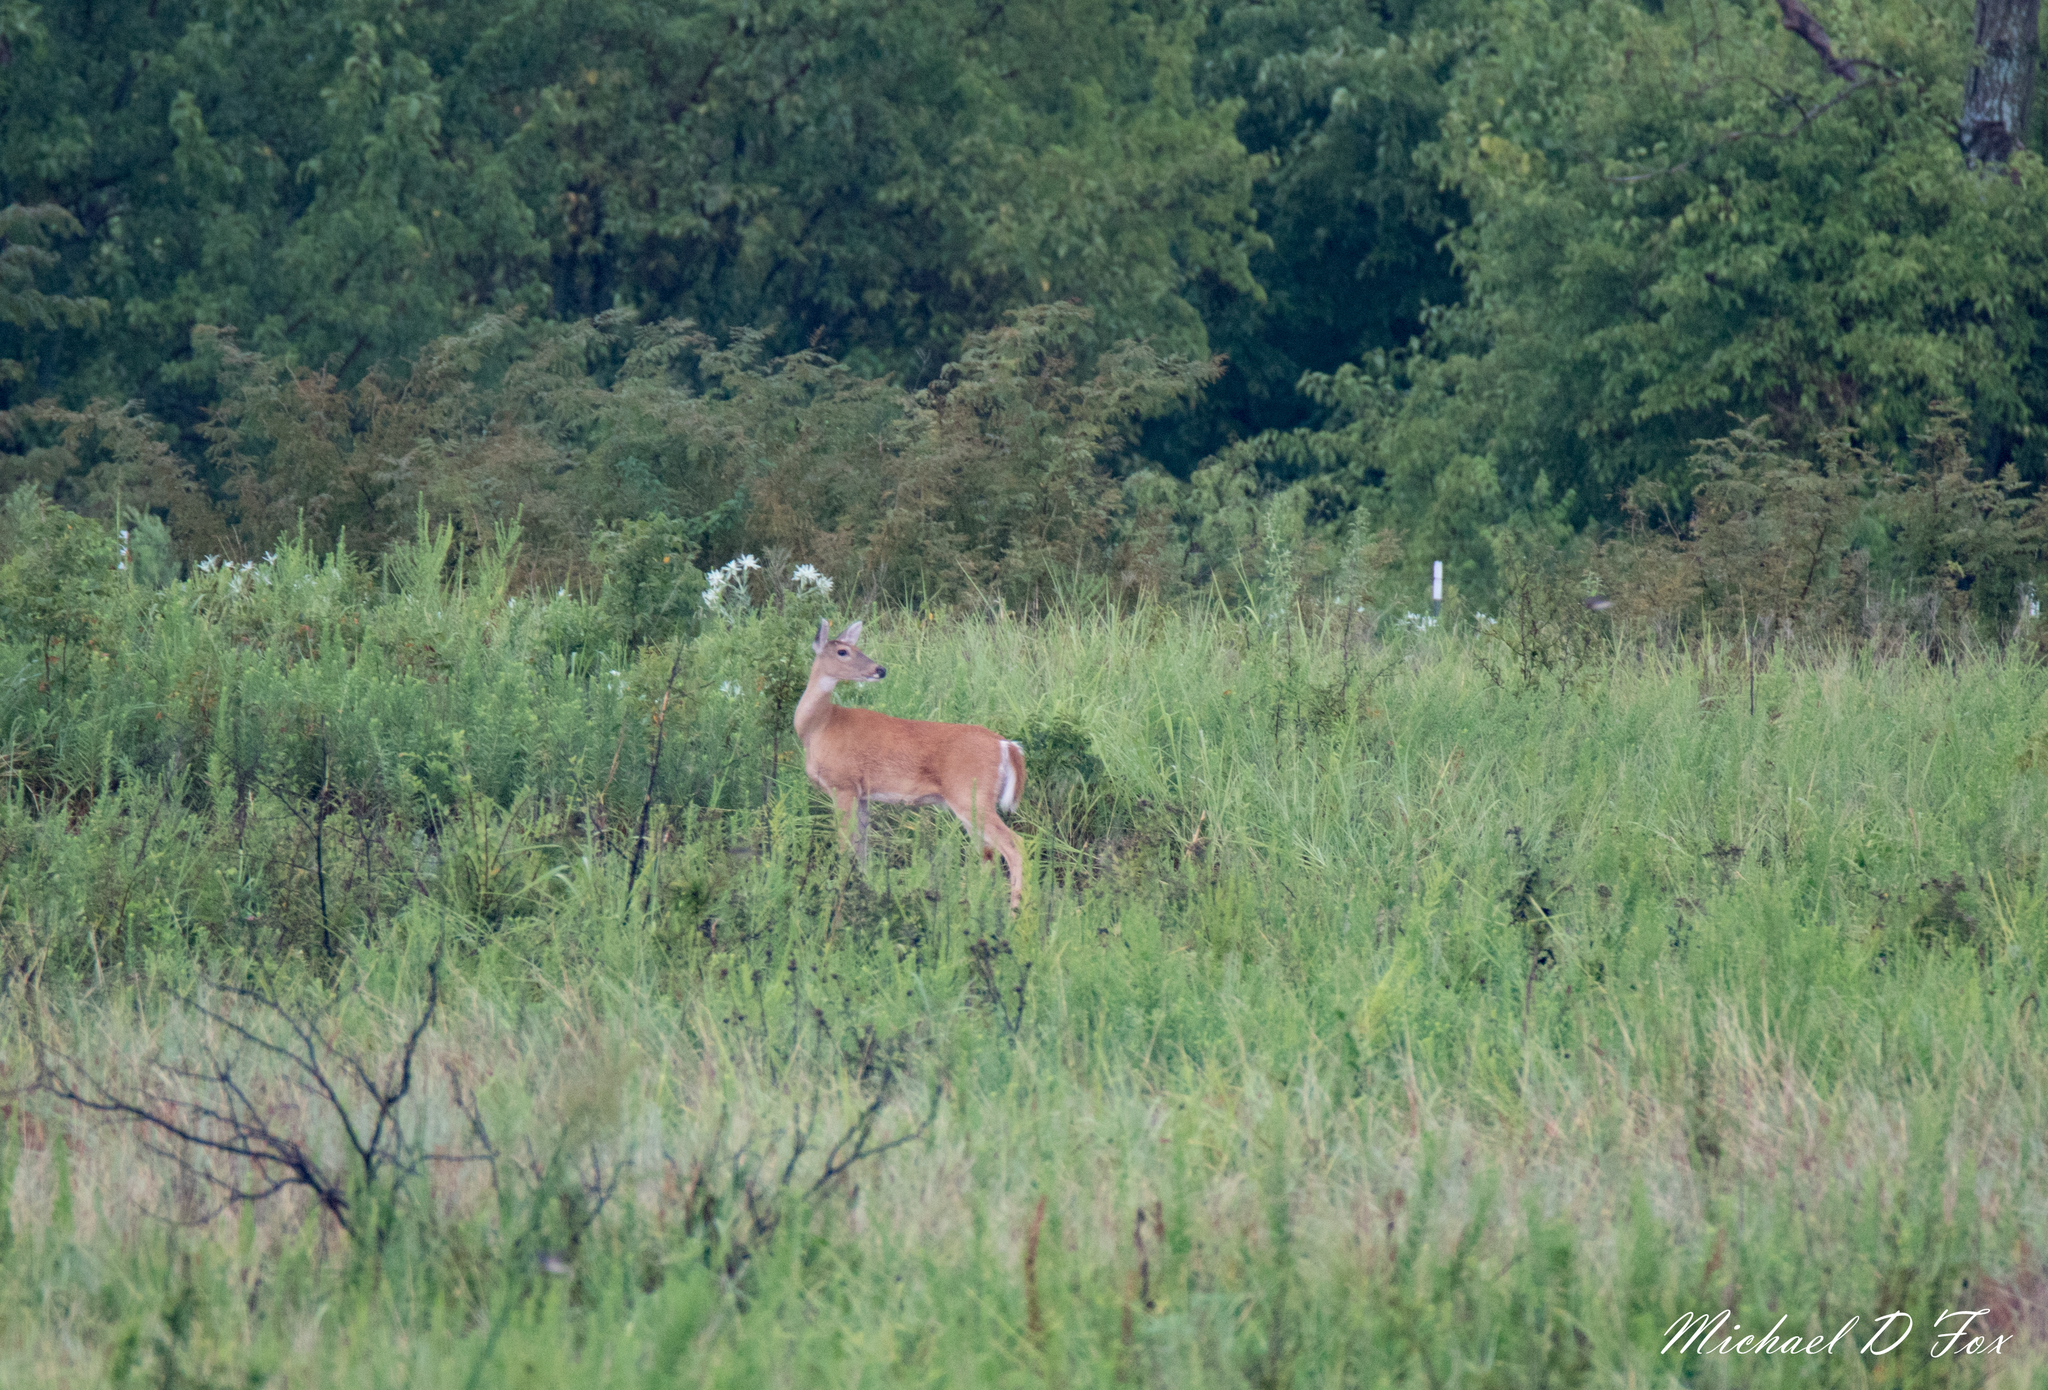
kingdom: Animalia
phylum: Chordata
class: Mammalia
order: Artiodactyla
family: Cervidae
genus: Odocoileus
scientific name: Odocoileus virginianus
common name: White-tailed deer
